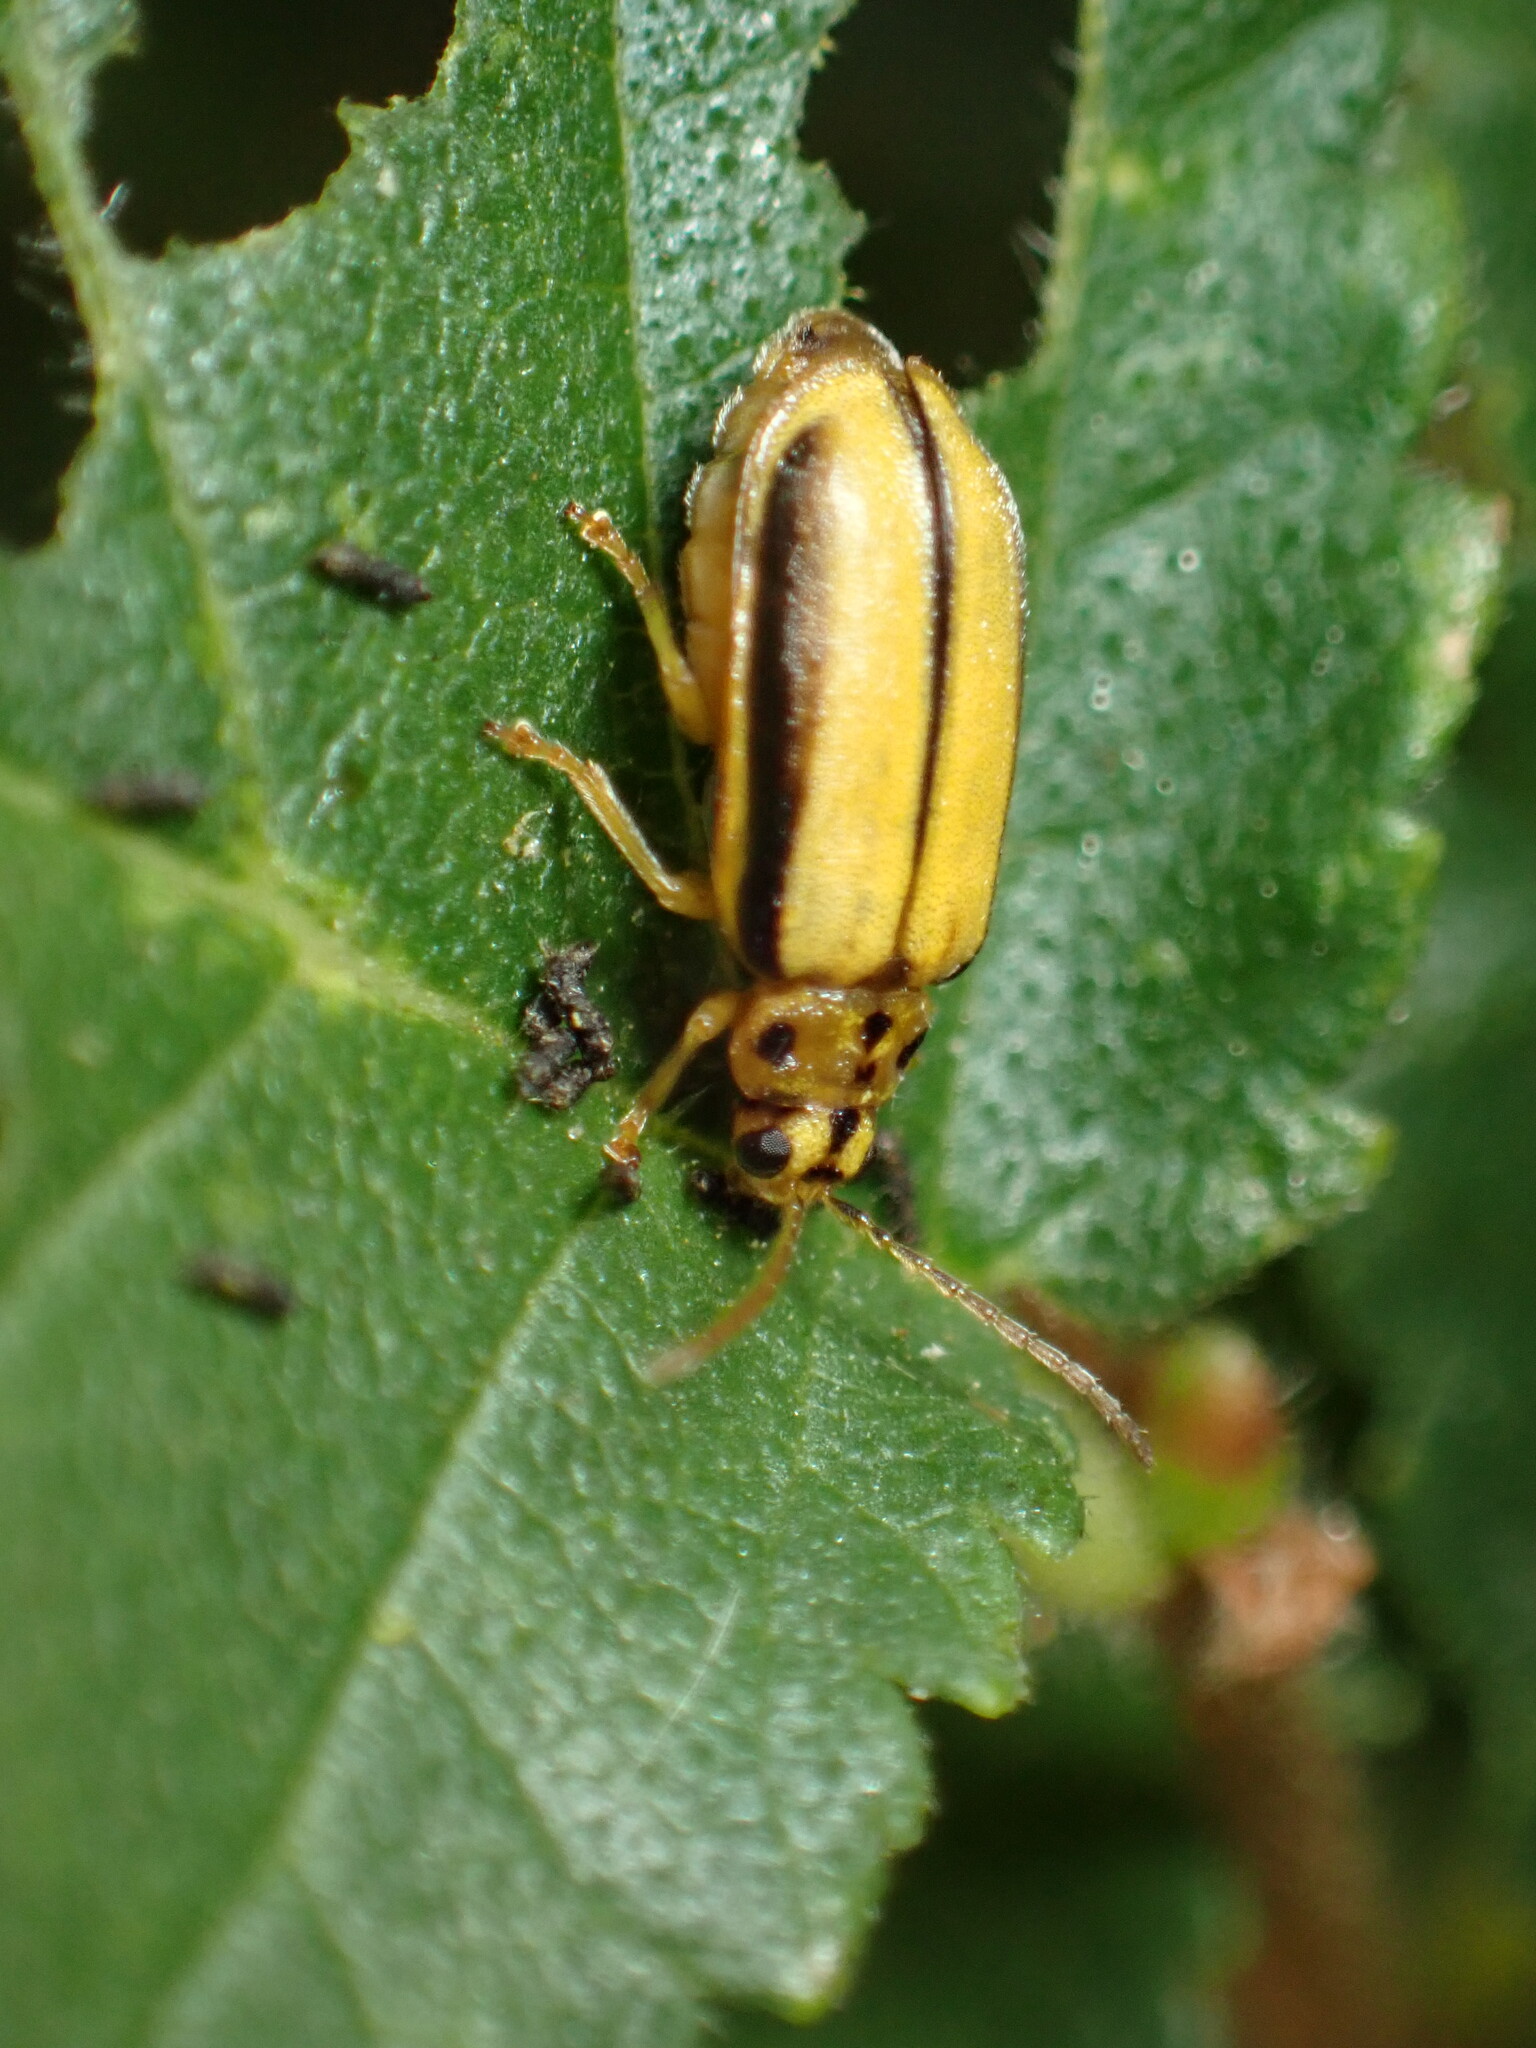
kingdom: Animalia
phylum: Arthropoda
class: Insecta
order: Coleoptera
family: Chrysomelidae
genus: Xanthogaleruca
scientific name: Xanthogaleruca luteola
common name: Elm leaf beetle
